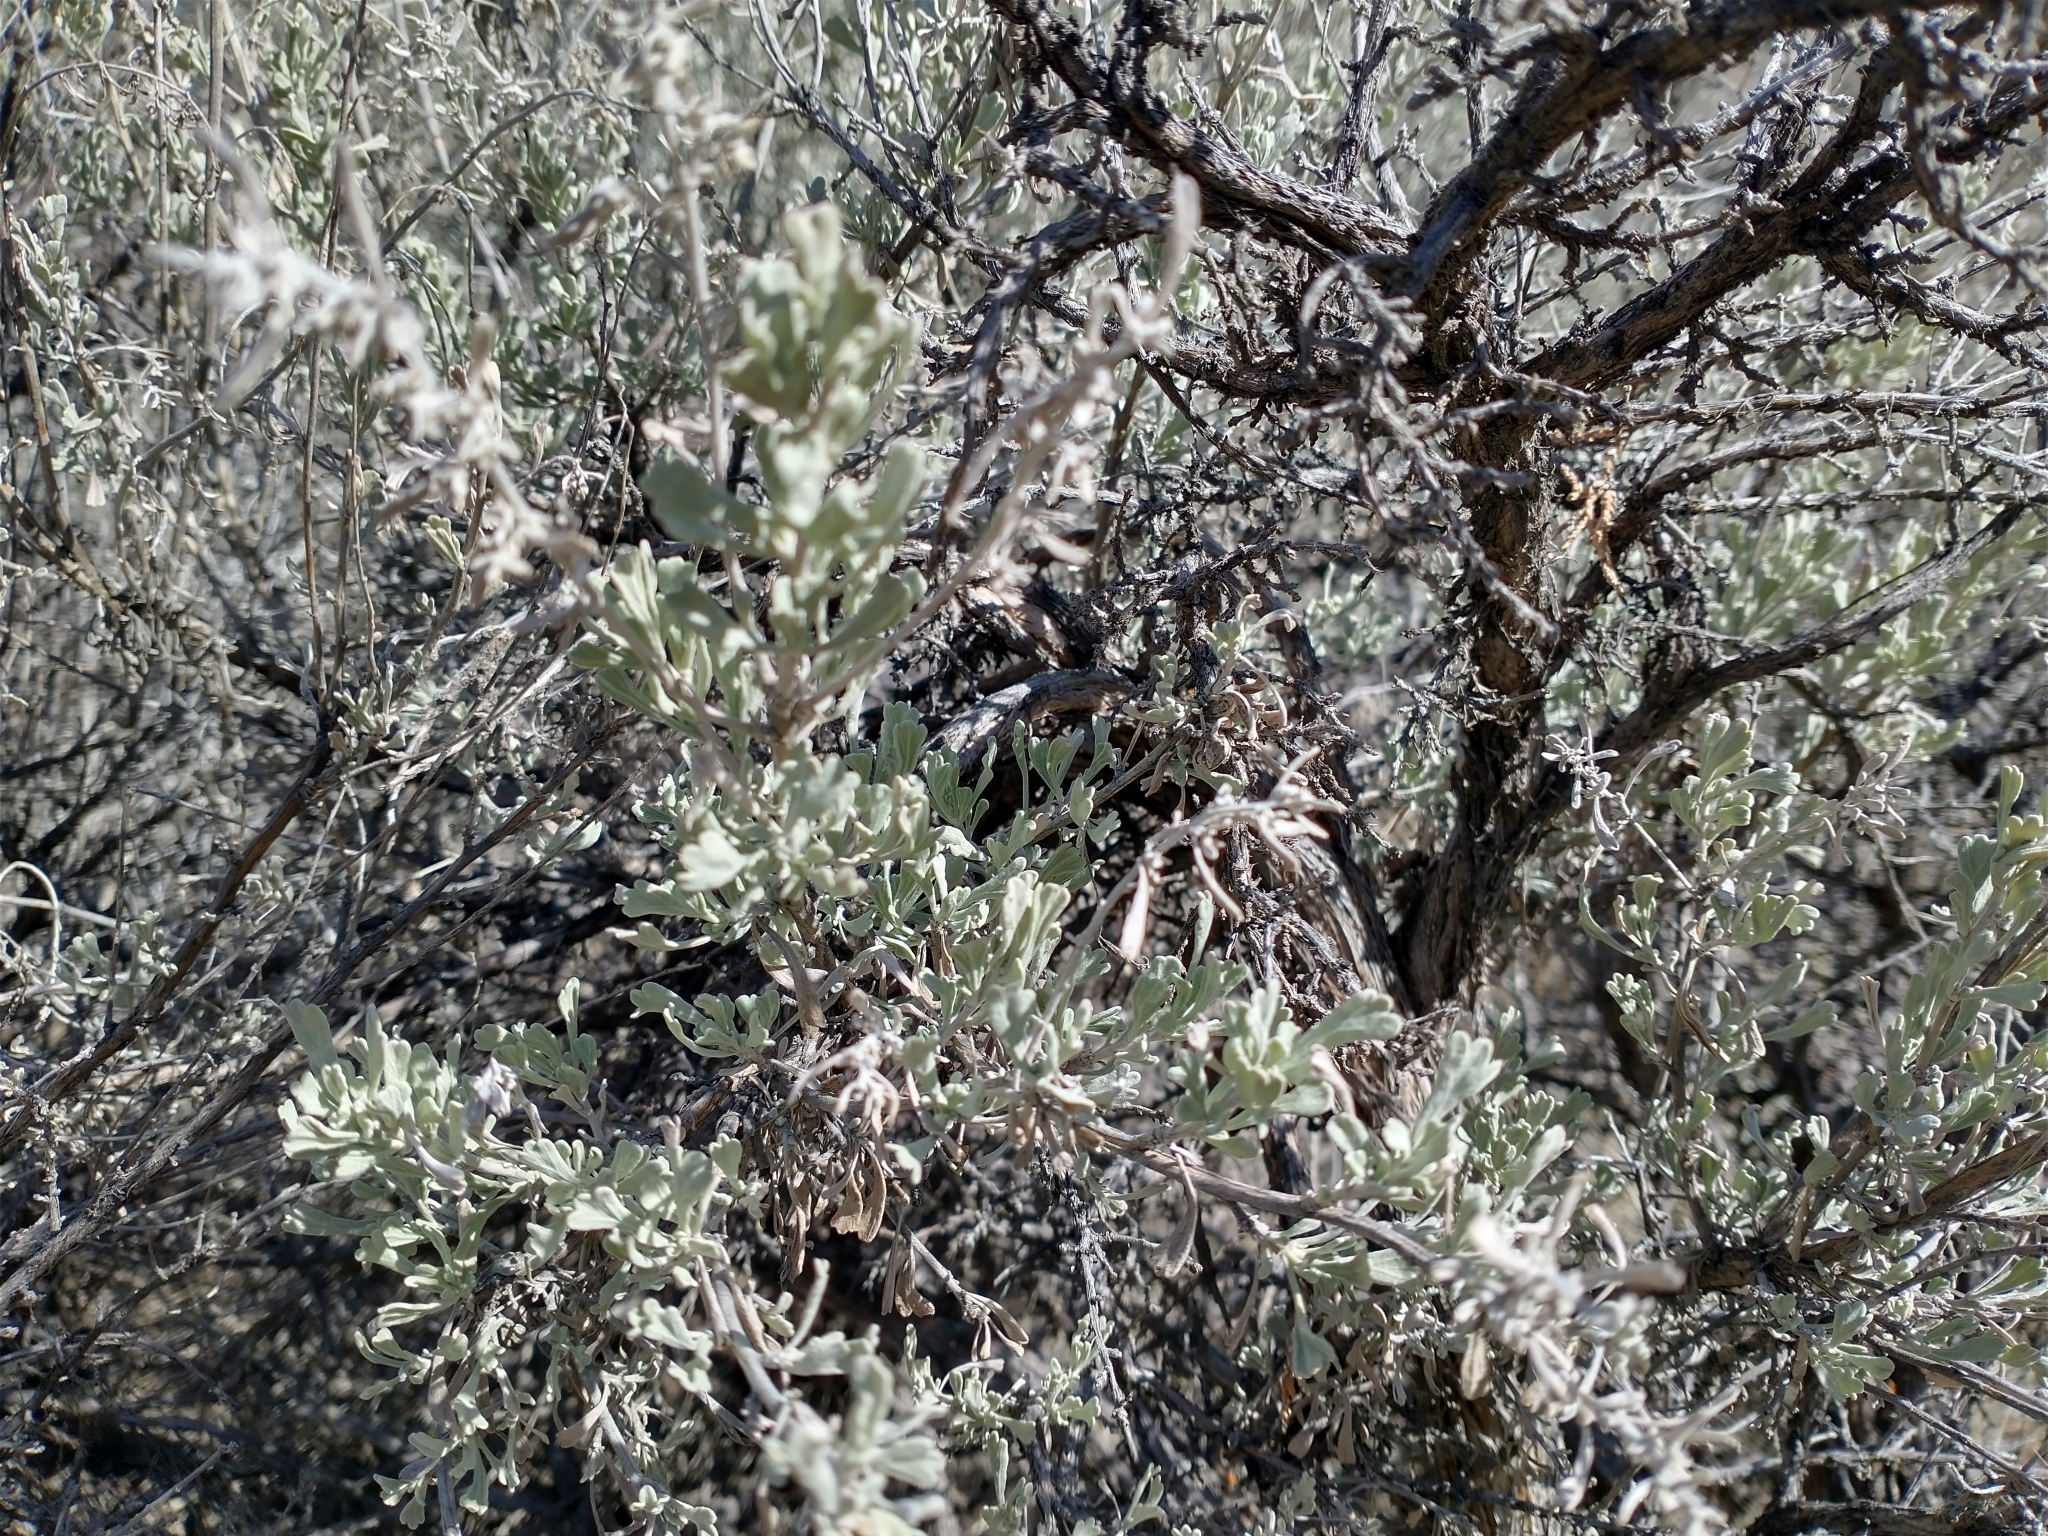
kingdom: Plantae
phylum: Tracheophyta
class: Magnoliopsida
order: Asterales
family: Asteraceae
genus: Artemisia
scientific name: Artemisia tridentata
